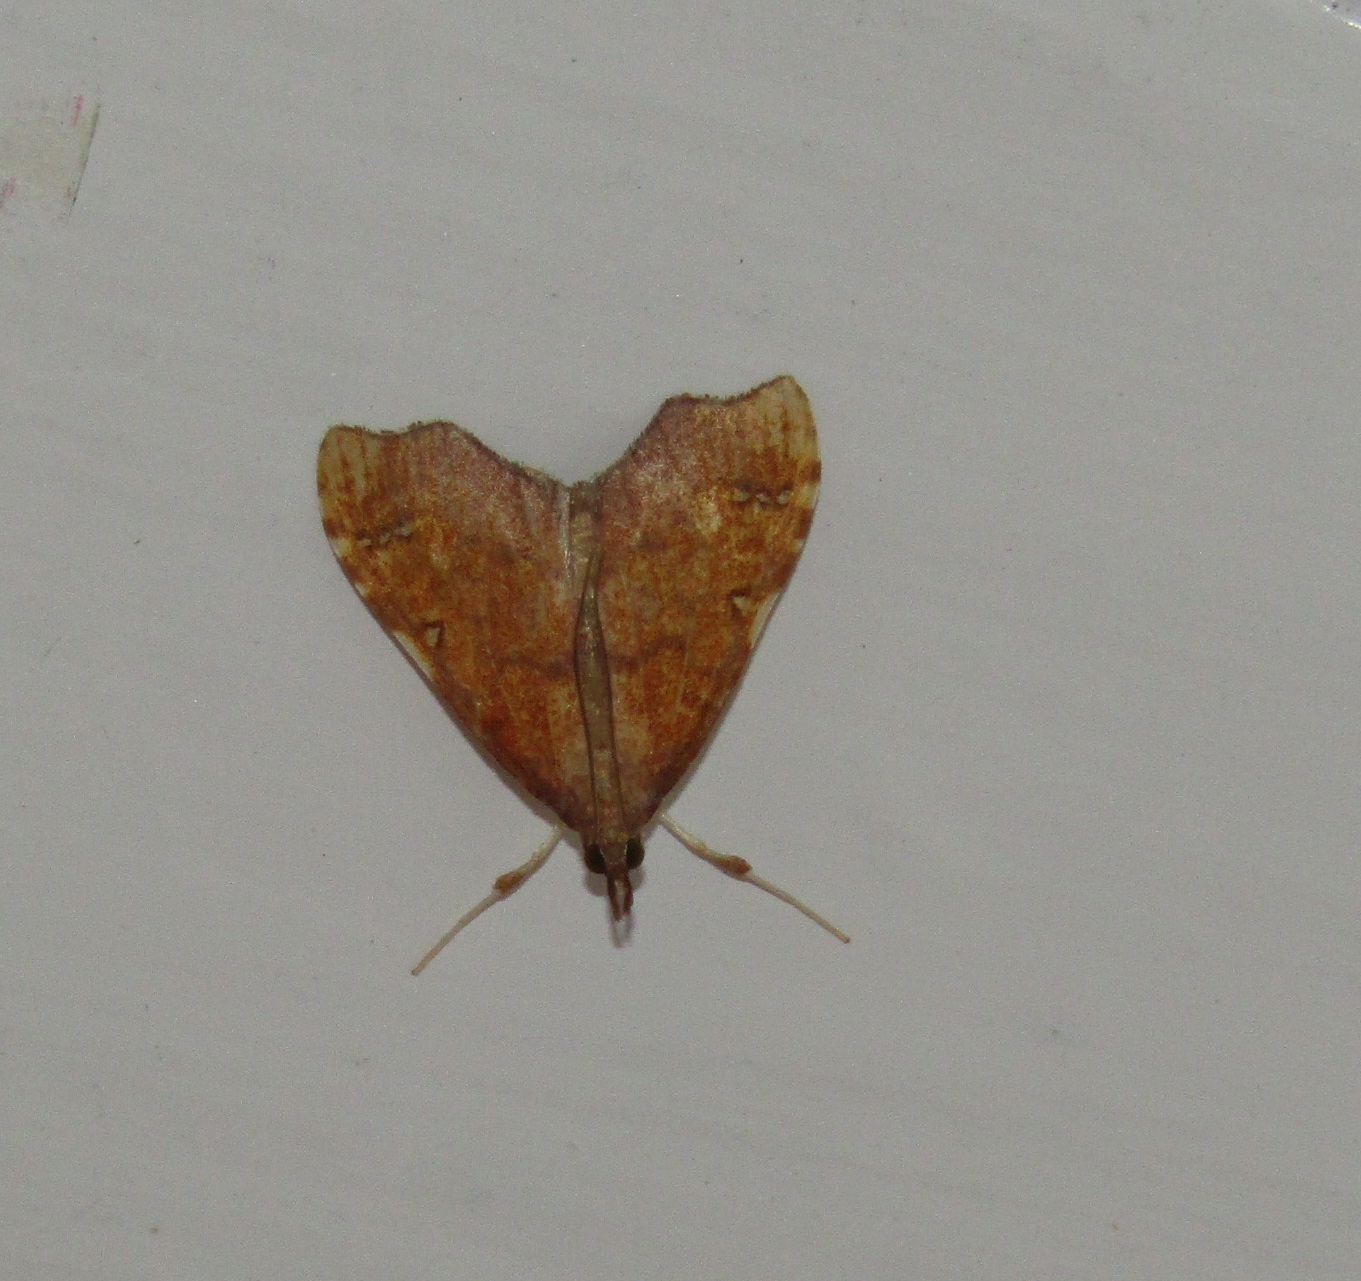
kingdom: Animalia
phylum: Arthropoda
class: Insecta
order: Lepidoptera
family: Crambidae
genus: Deana
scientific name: Deana hybreasalis
